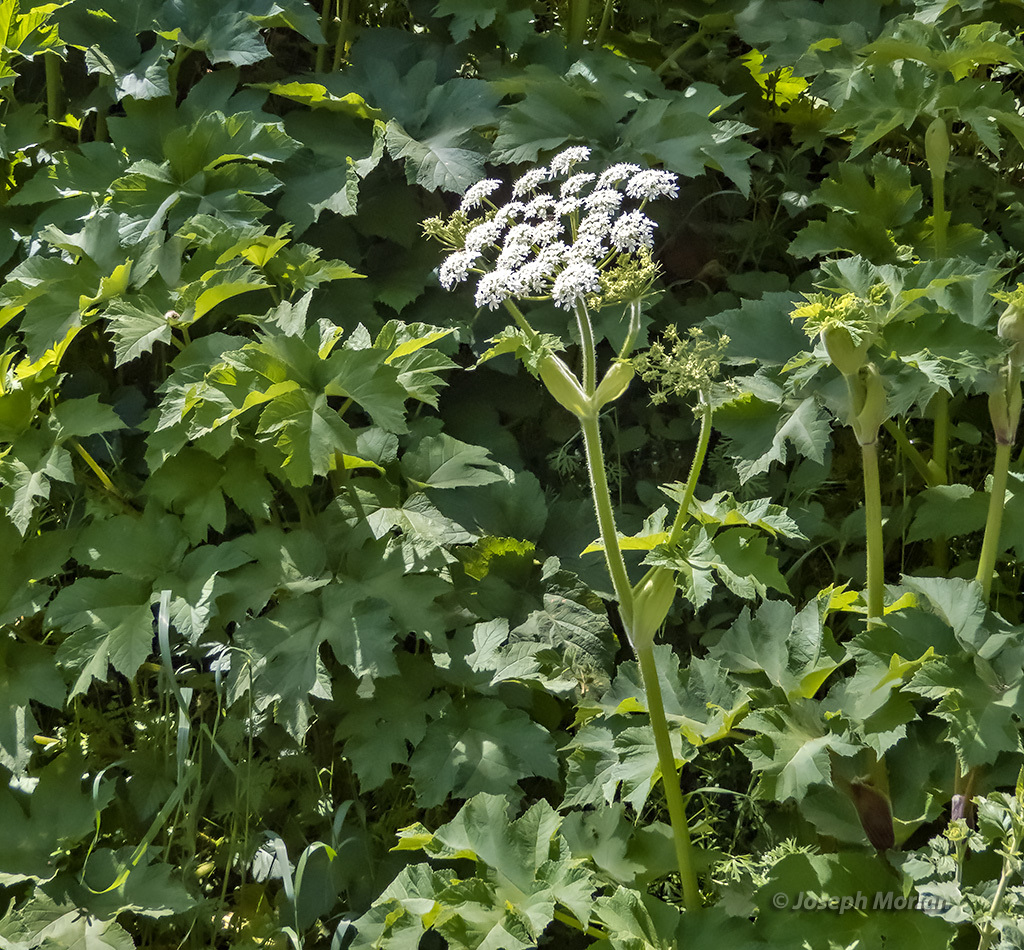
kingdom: Plantae
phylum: Tracheophyta
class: Magnoliopsida
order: Apiales
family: Apiaceae
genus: Heracleum
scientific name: Heracleum maximum
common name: American cow parsnip
